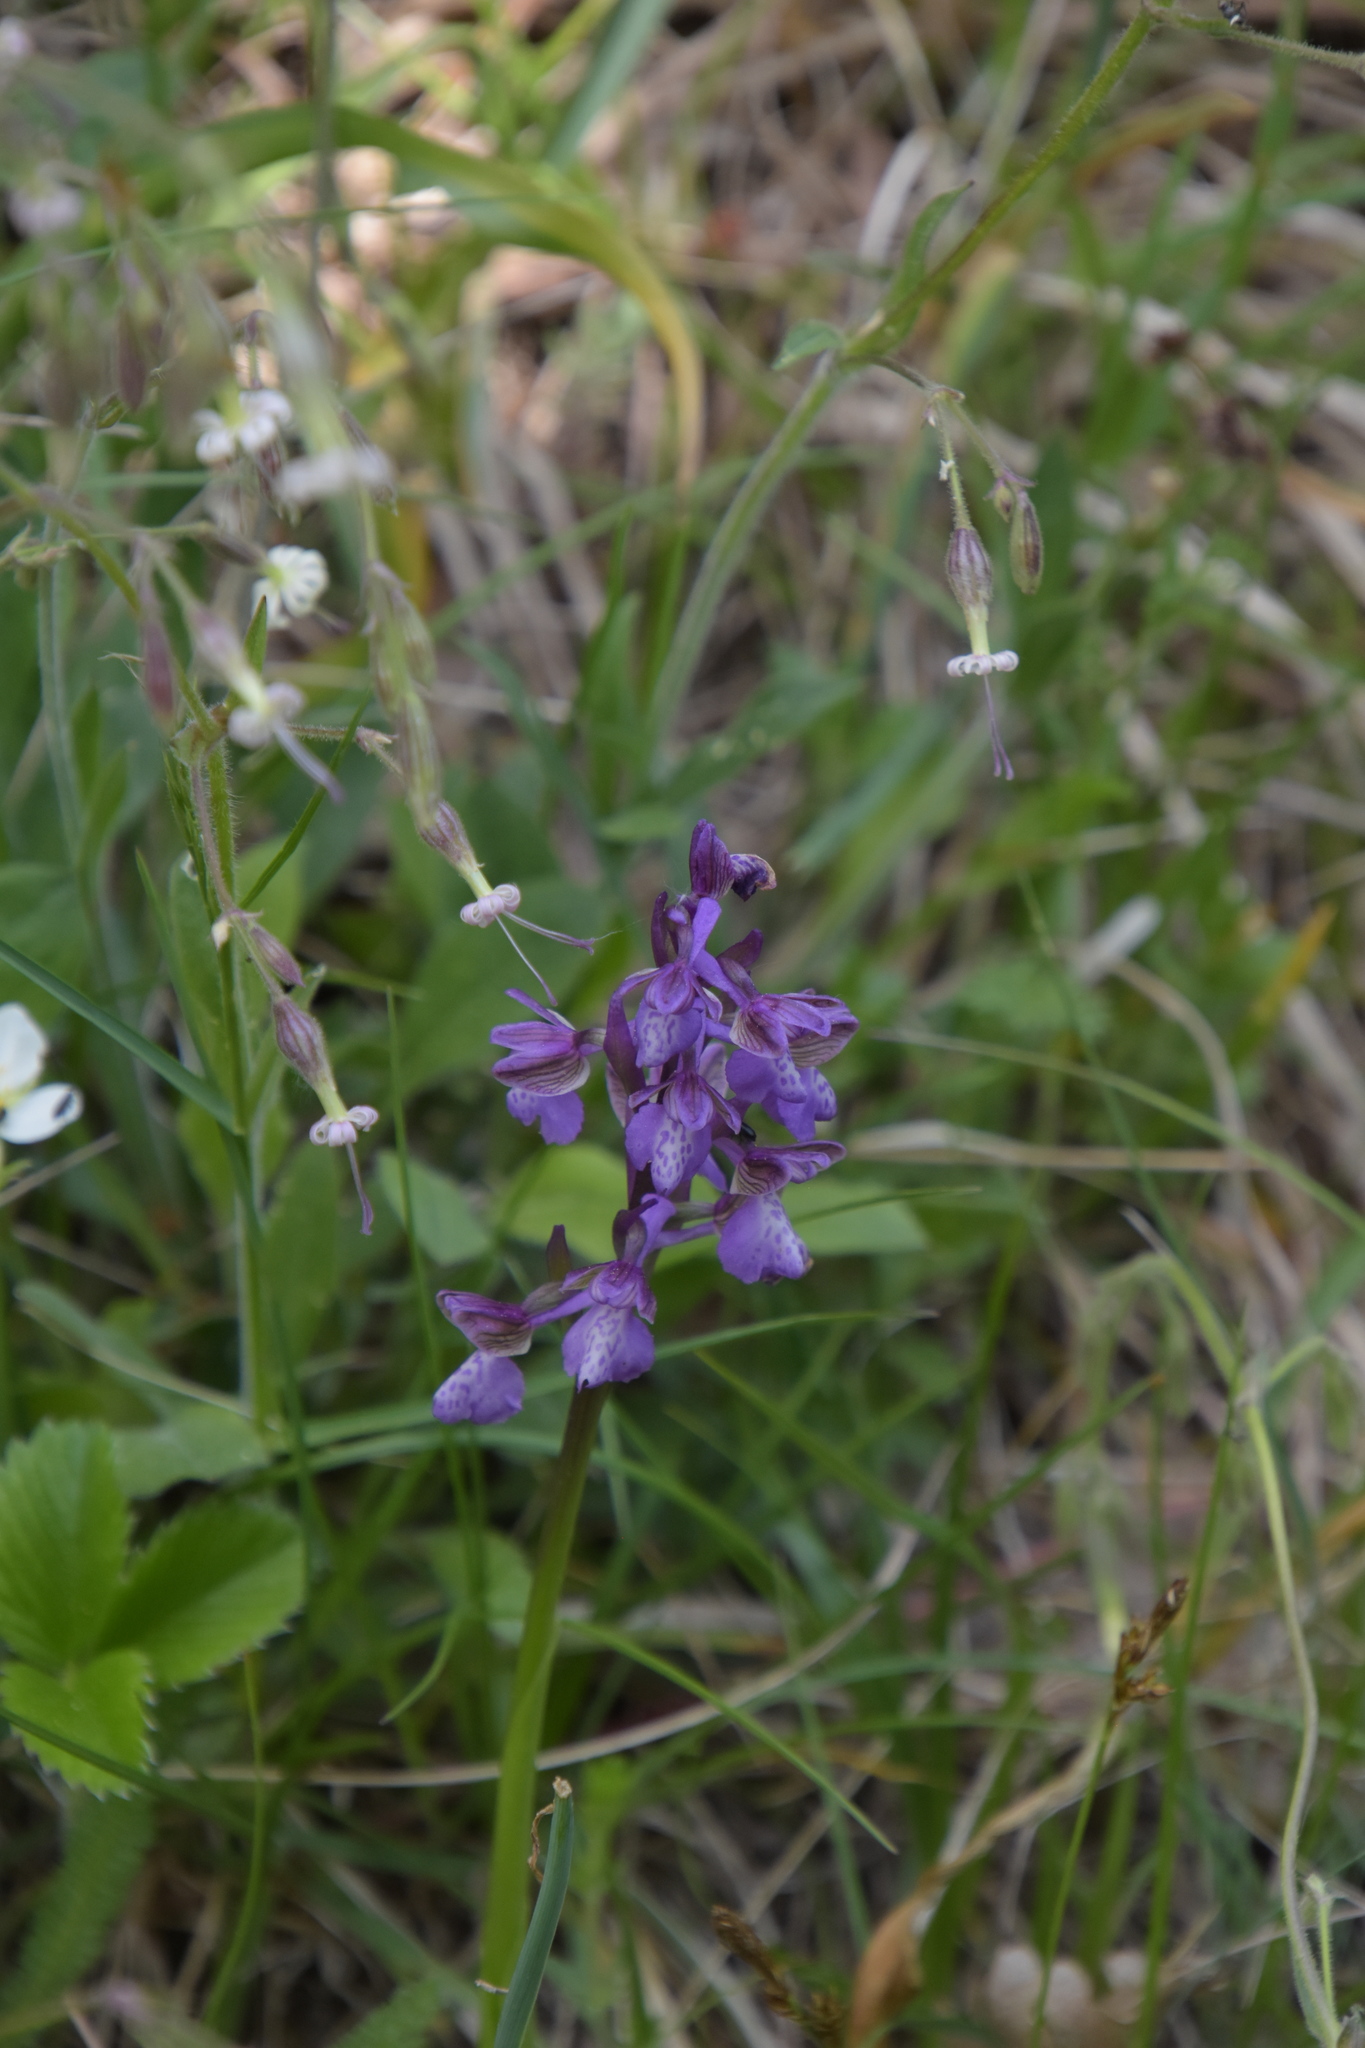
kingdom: Plantae
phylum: Tracheophyta
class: Liliopsida
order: Asparagales
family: Orchidaceae
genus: Anacamptis
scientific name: Anacamptis morio
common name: Green-winged orchid
